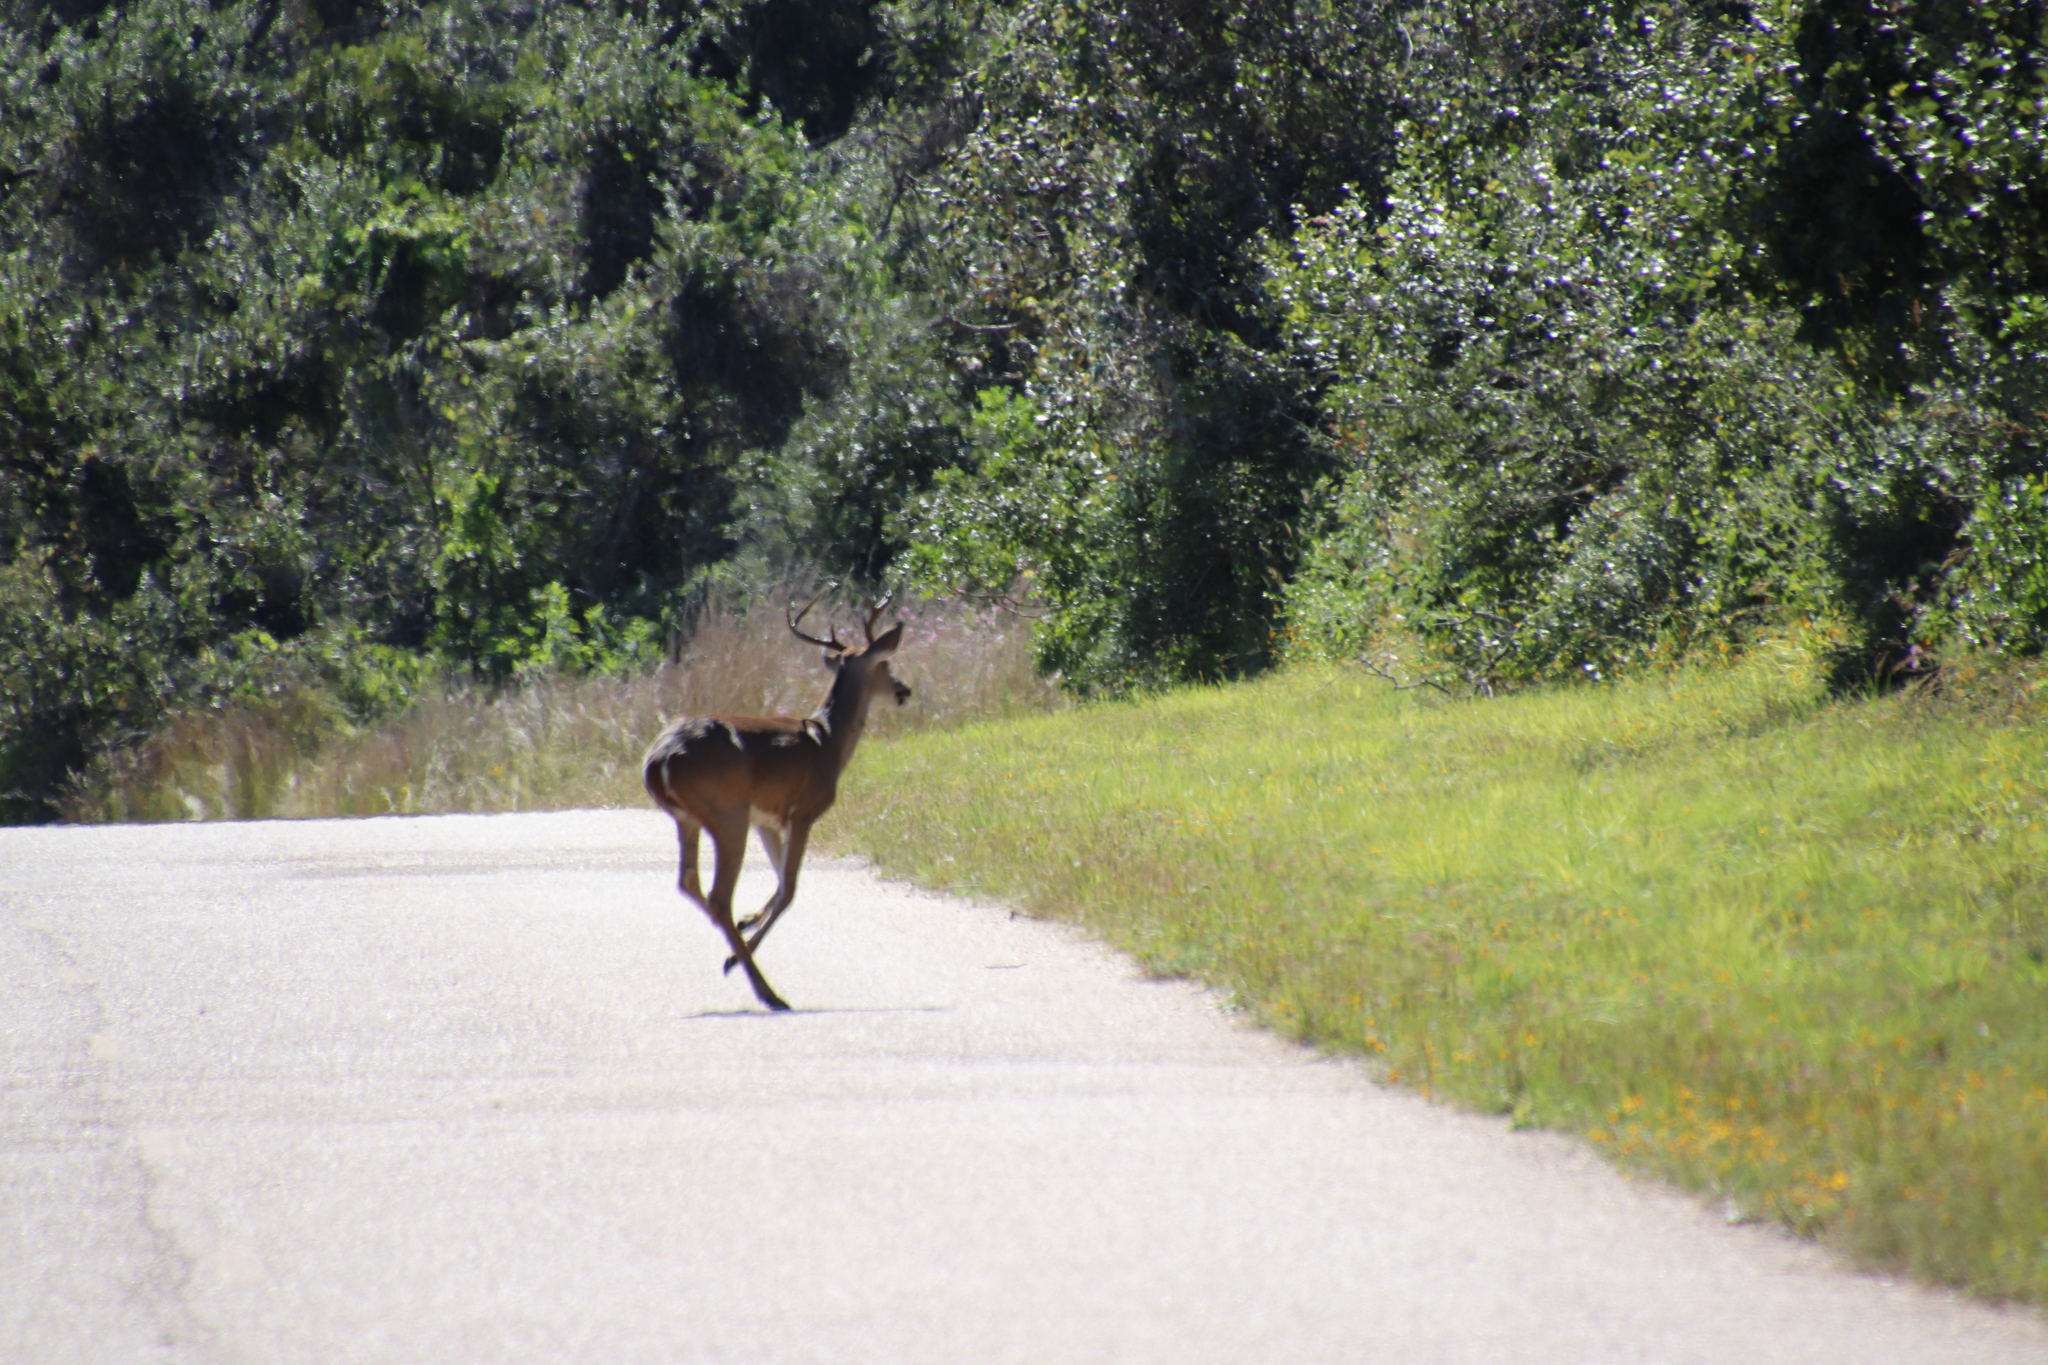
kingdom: Animalia
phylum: Chordata
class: Mammalia
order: Artiodactyla
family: Cervidae
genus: Odocoileus
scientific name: Odocoileus virginianus
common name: White-tailed deer
